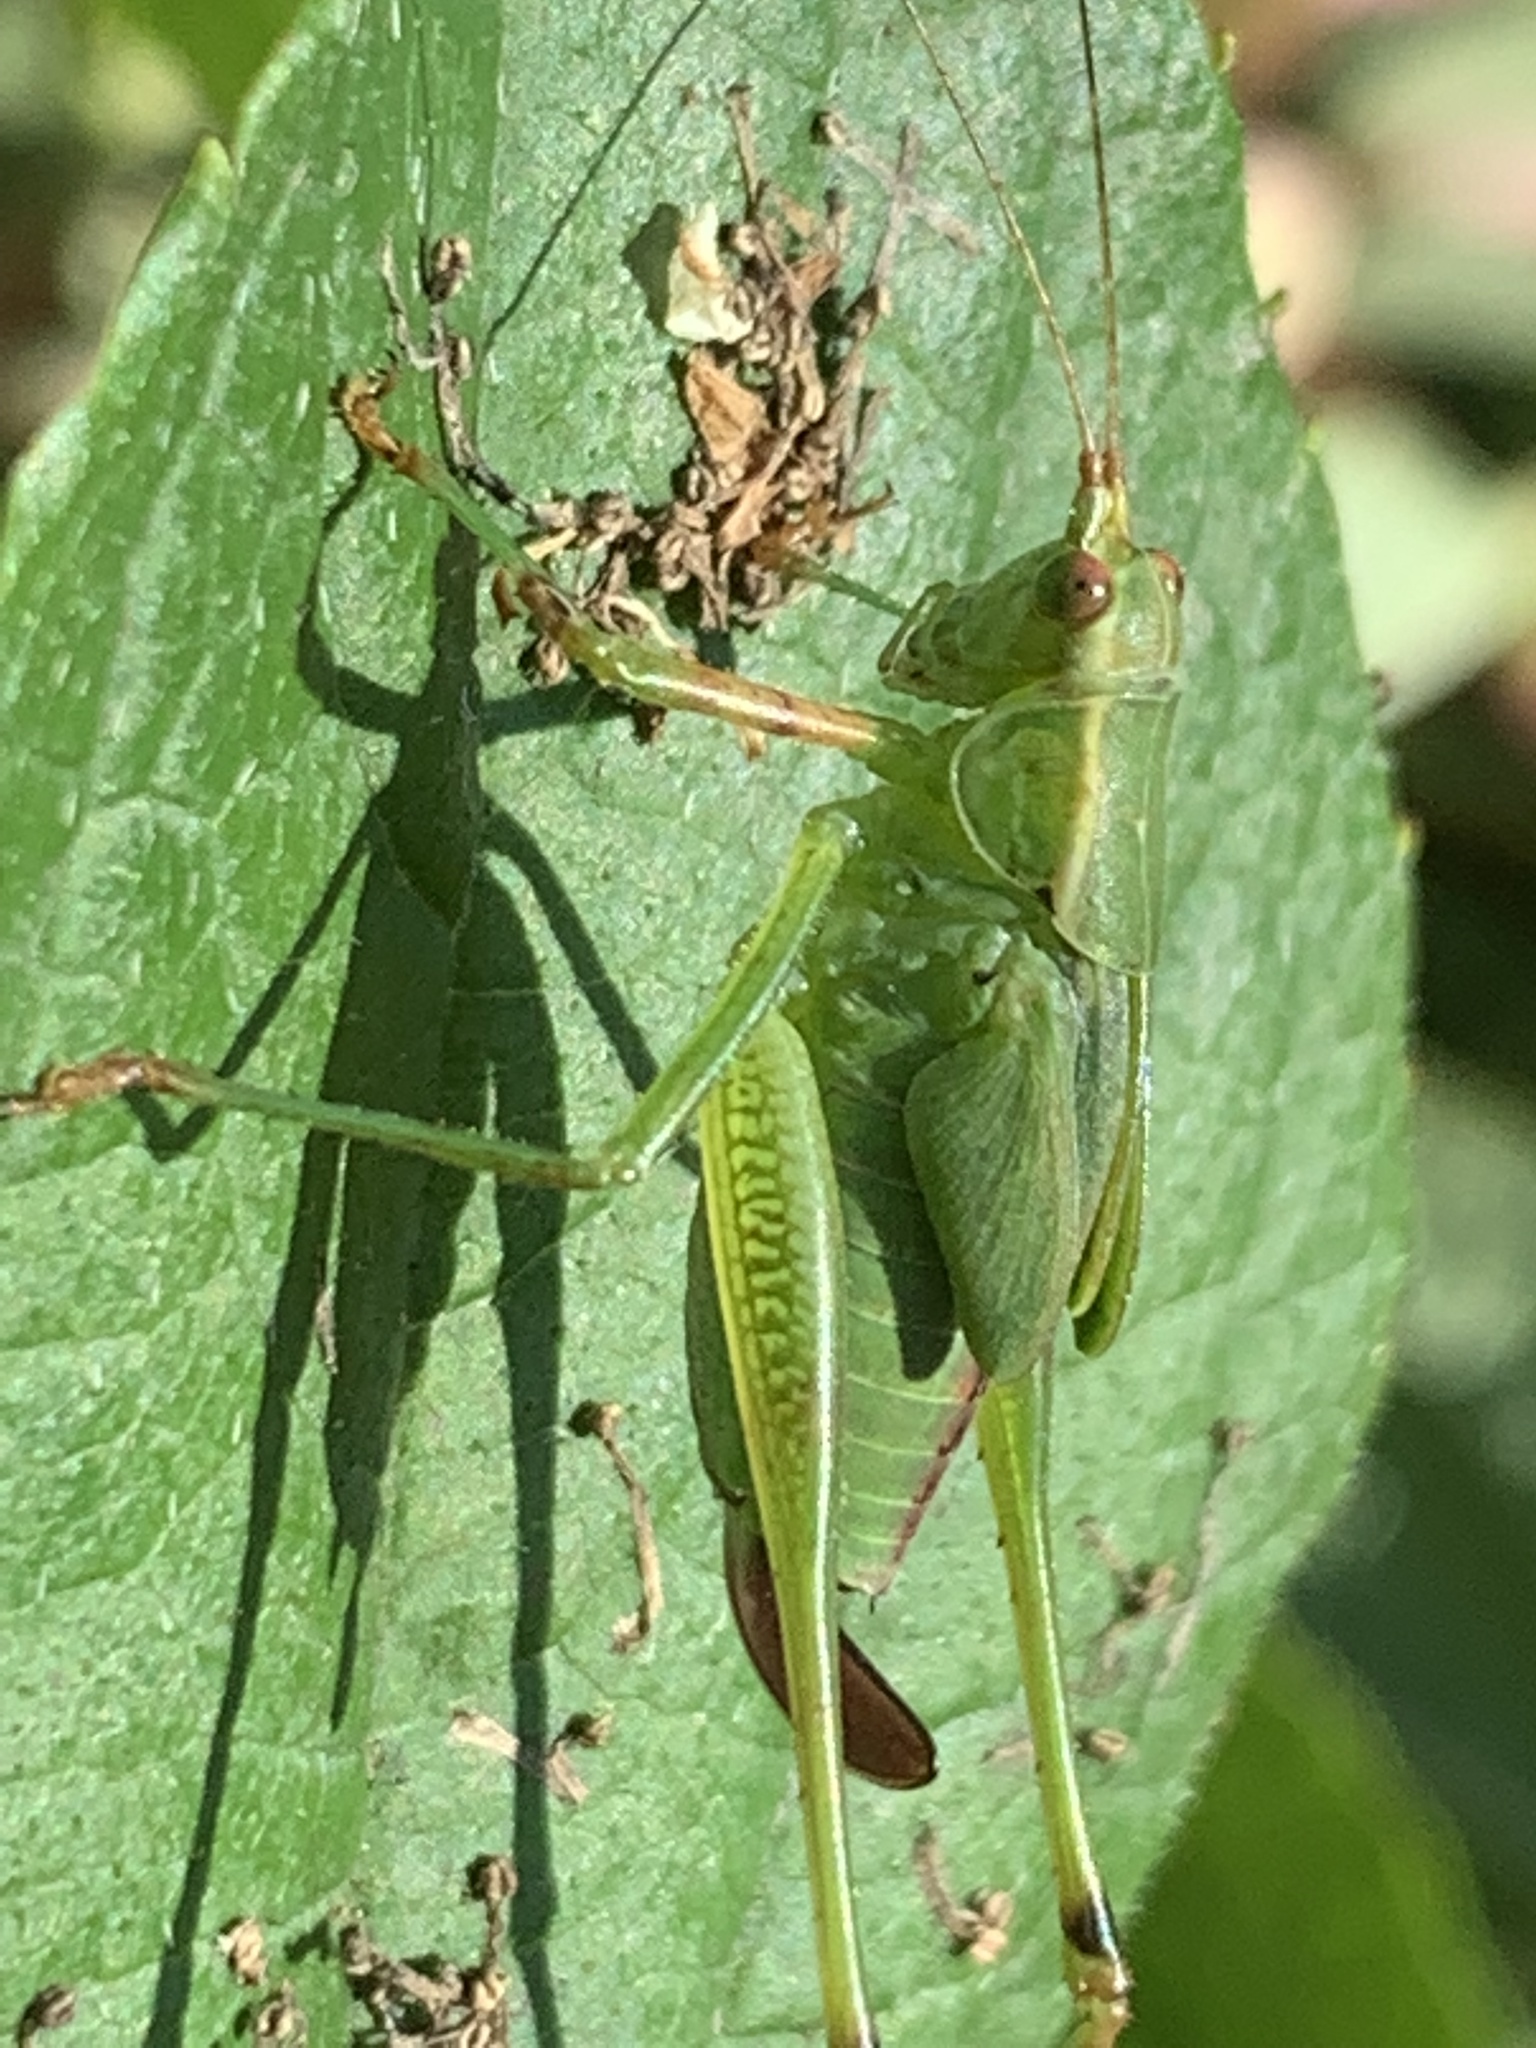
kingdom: Animalia
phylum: Arthropoda
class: Insecta
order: Orthoptera
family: Tettigoniidae
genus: Scudderia
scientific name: Scudderia furcata
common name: Fork-tailed bush katydid
